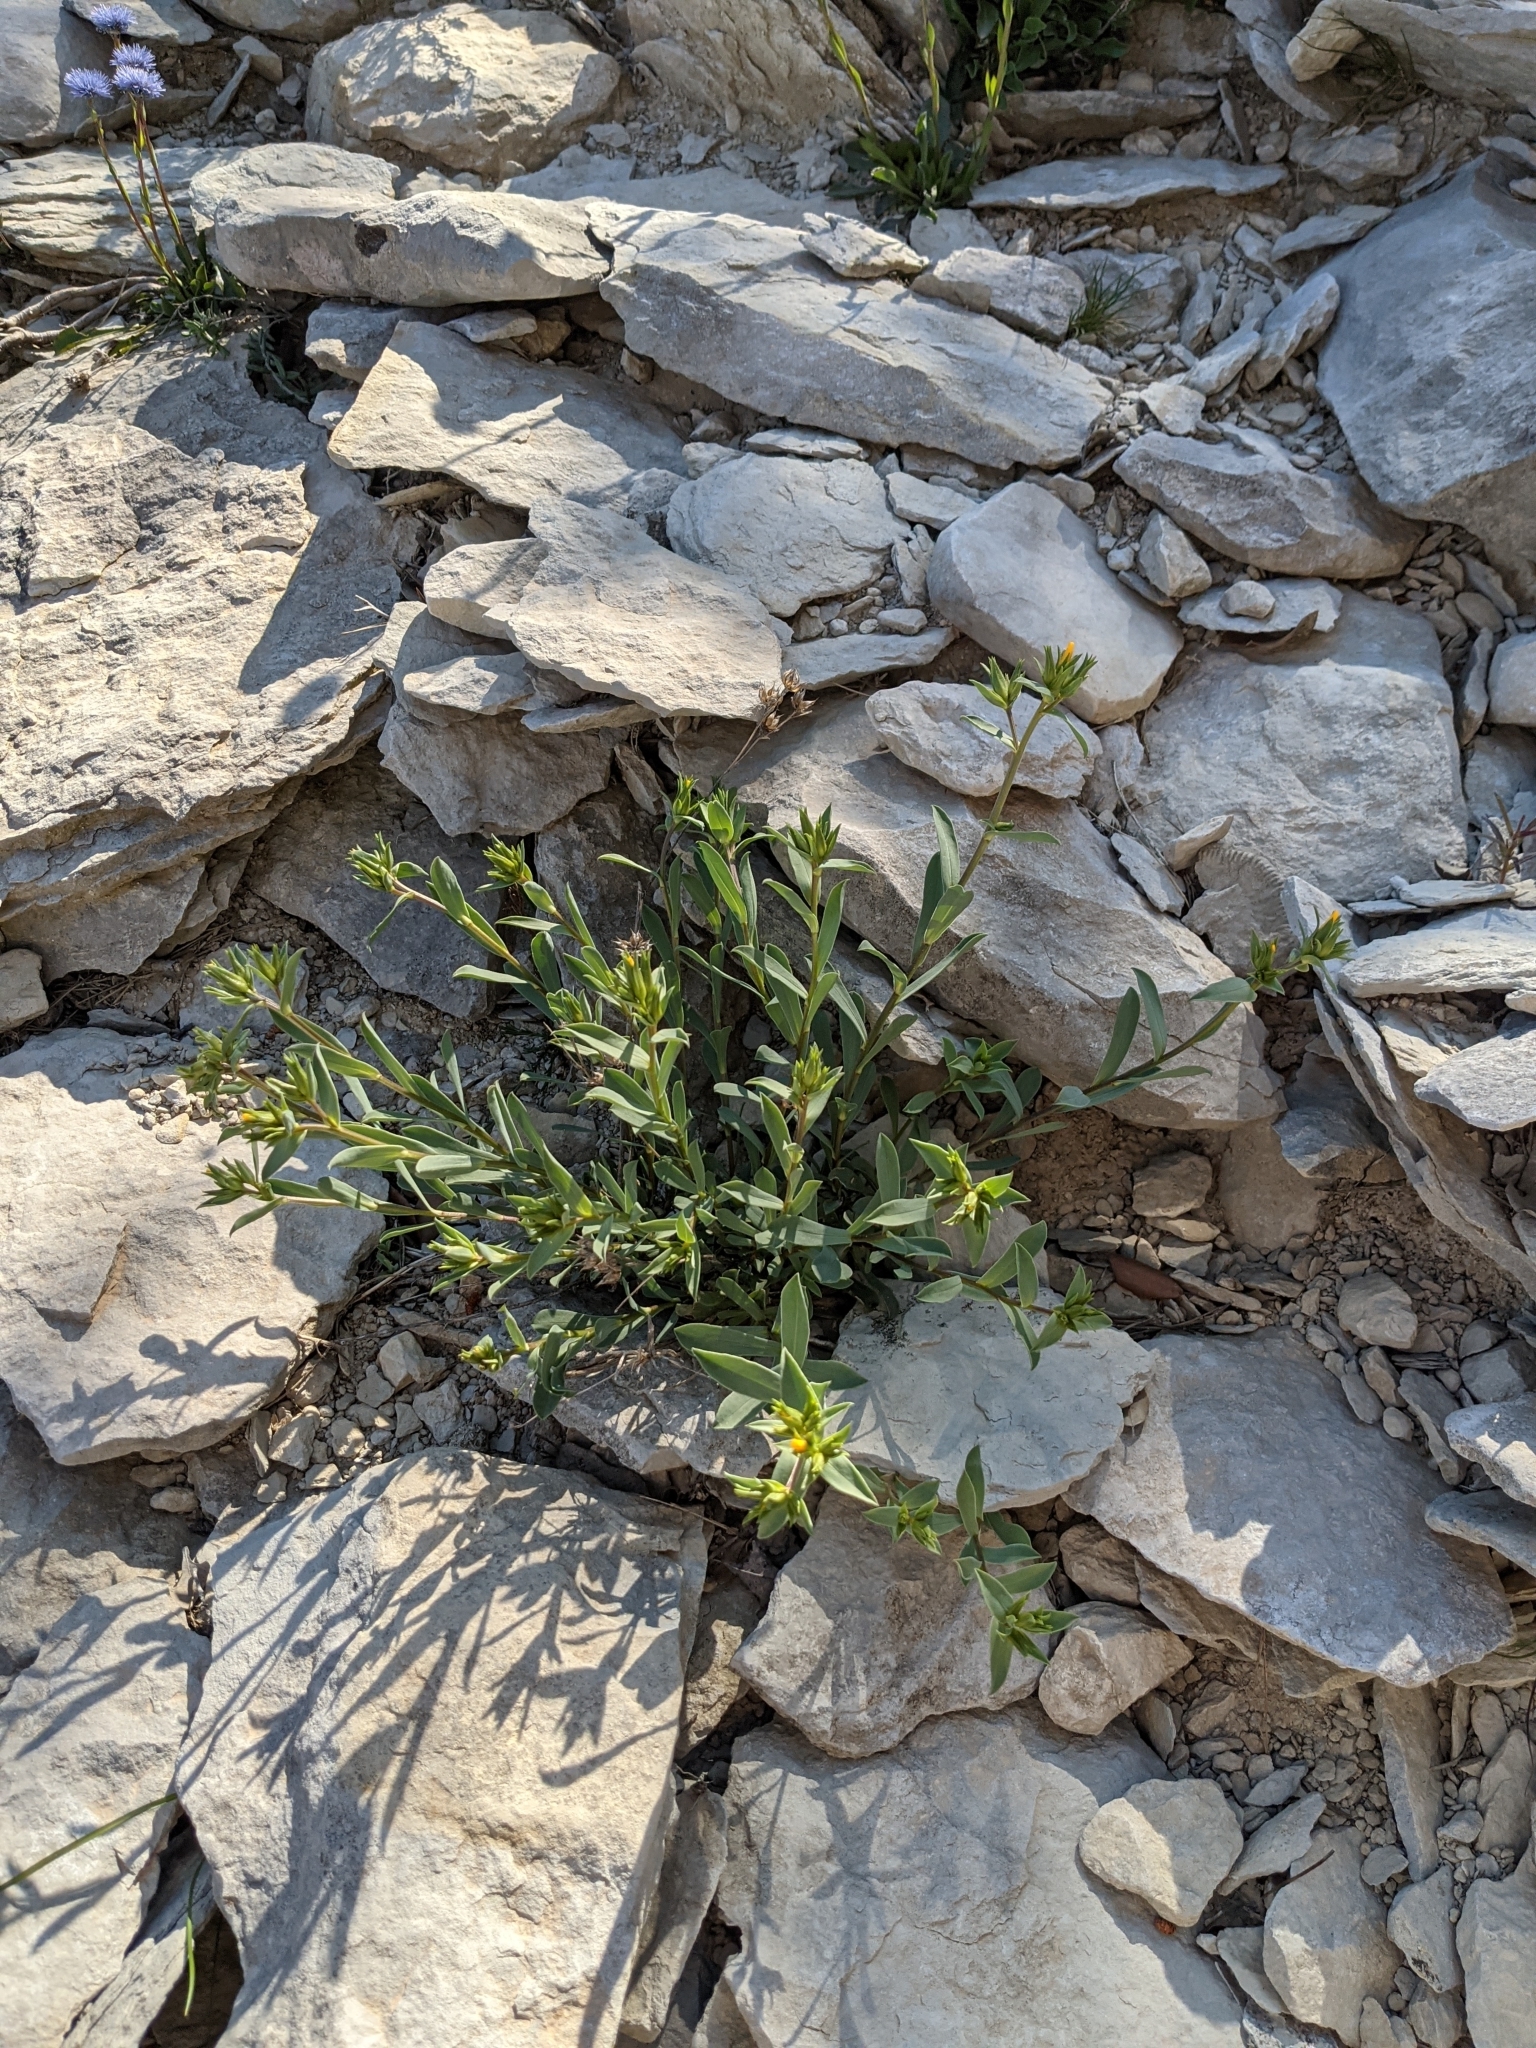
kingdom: Plantae
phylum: Tracheophyta
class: Magnoliopsida
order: Malpighiales
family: Linaceae
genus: Linum
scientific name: Linum strictum
